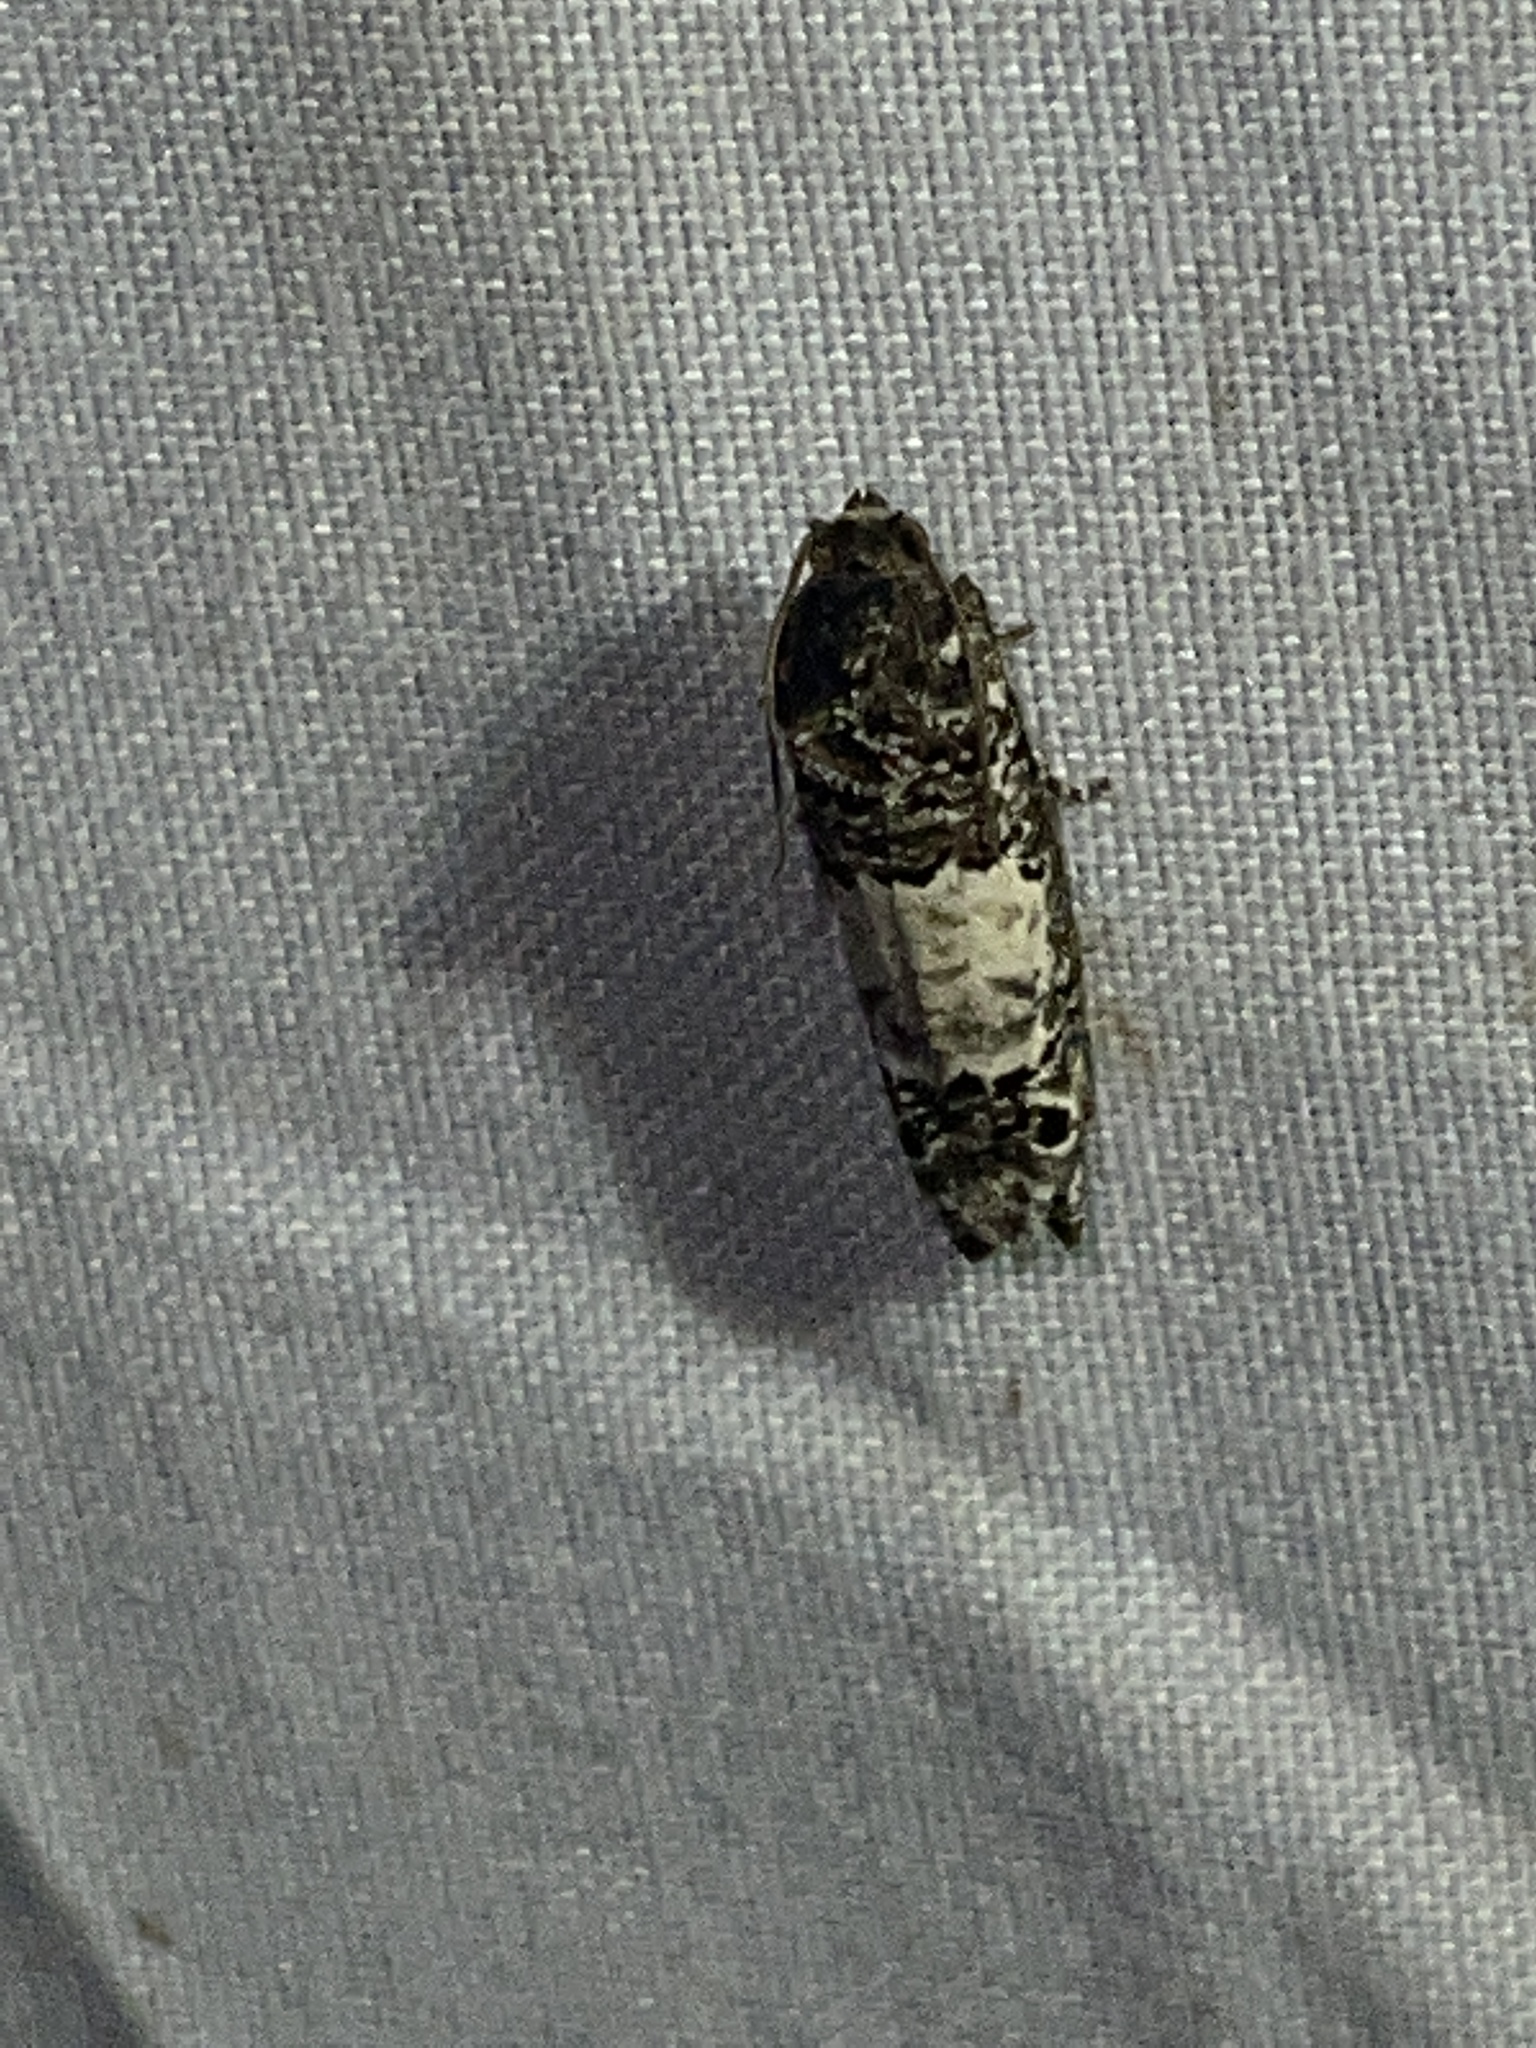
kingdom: Animalia
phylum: Arthropoda
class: Insecta
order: Lepidoptera
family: Tortricidae
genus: Epiblema
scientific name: Epiblema carolinana
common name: Gray-blotched epiblema moth
